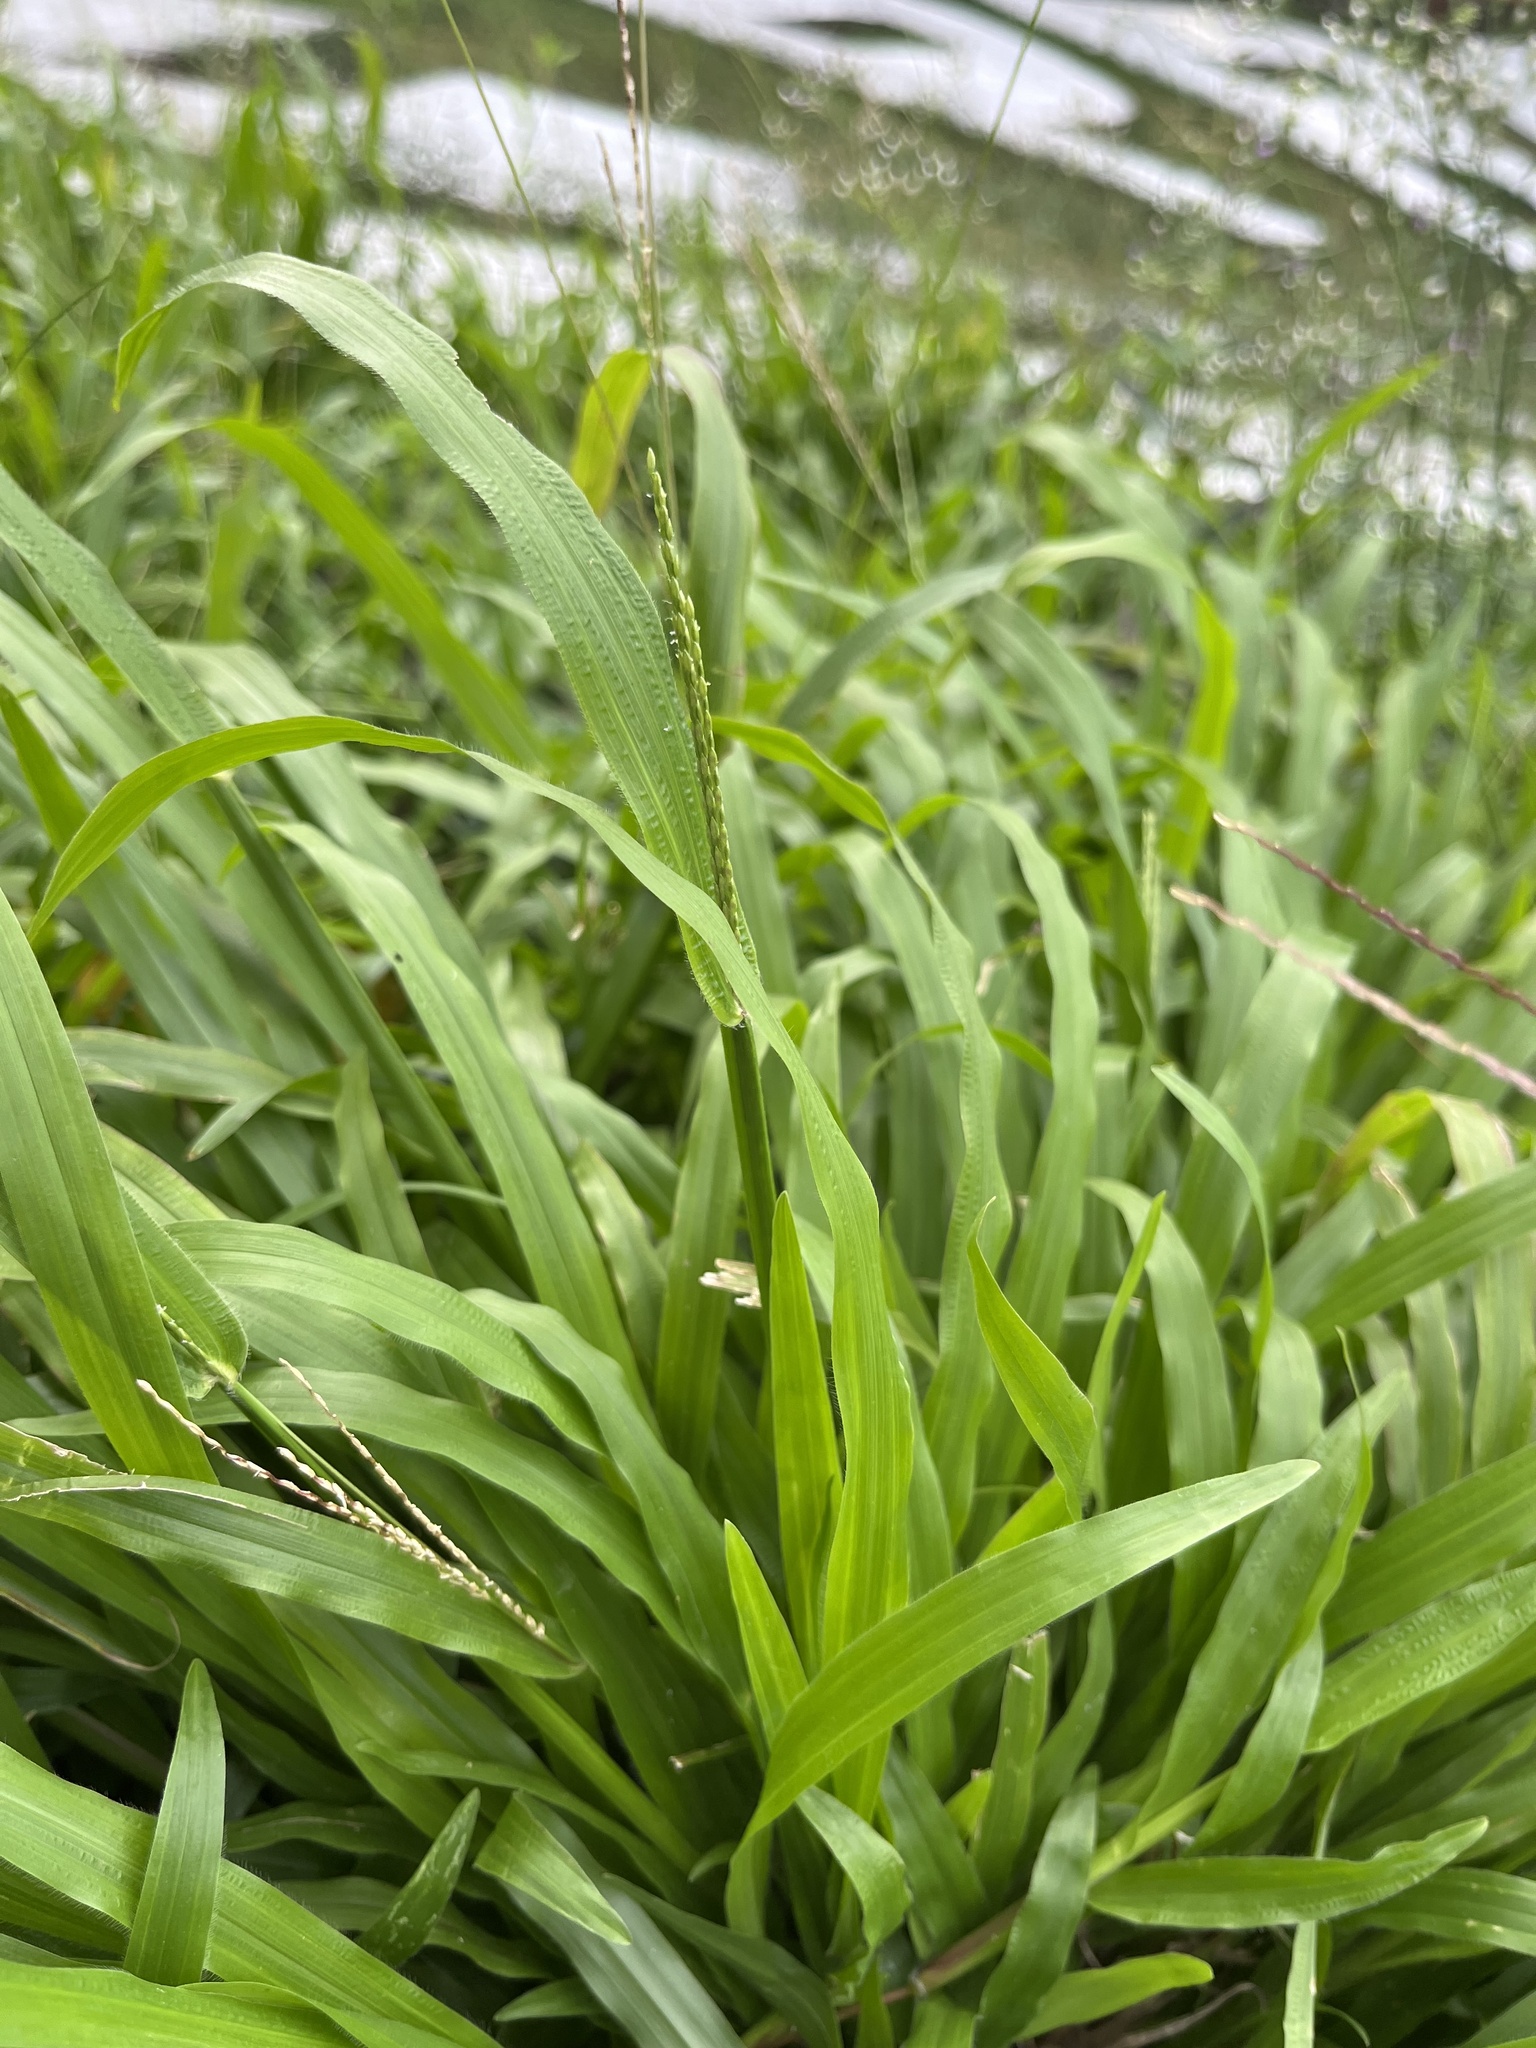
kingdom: Plantae
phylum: Tracheophyta
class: Liliopsida
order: Poales
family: Poaceae
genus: Axonopus
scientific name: Axonopus compressus
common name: American carpet grass
